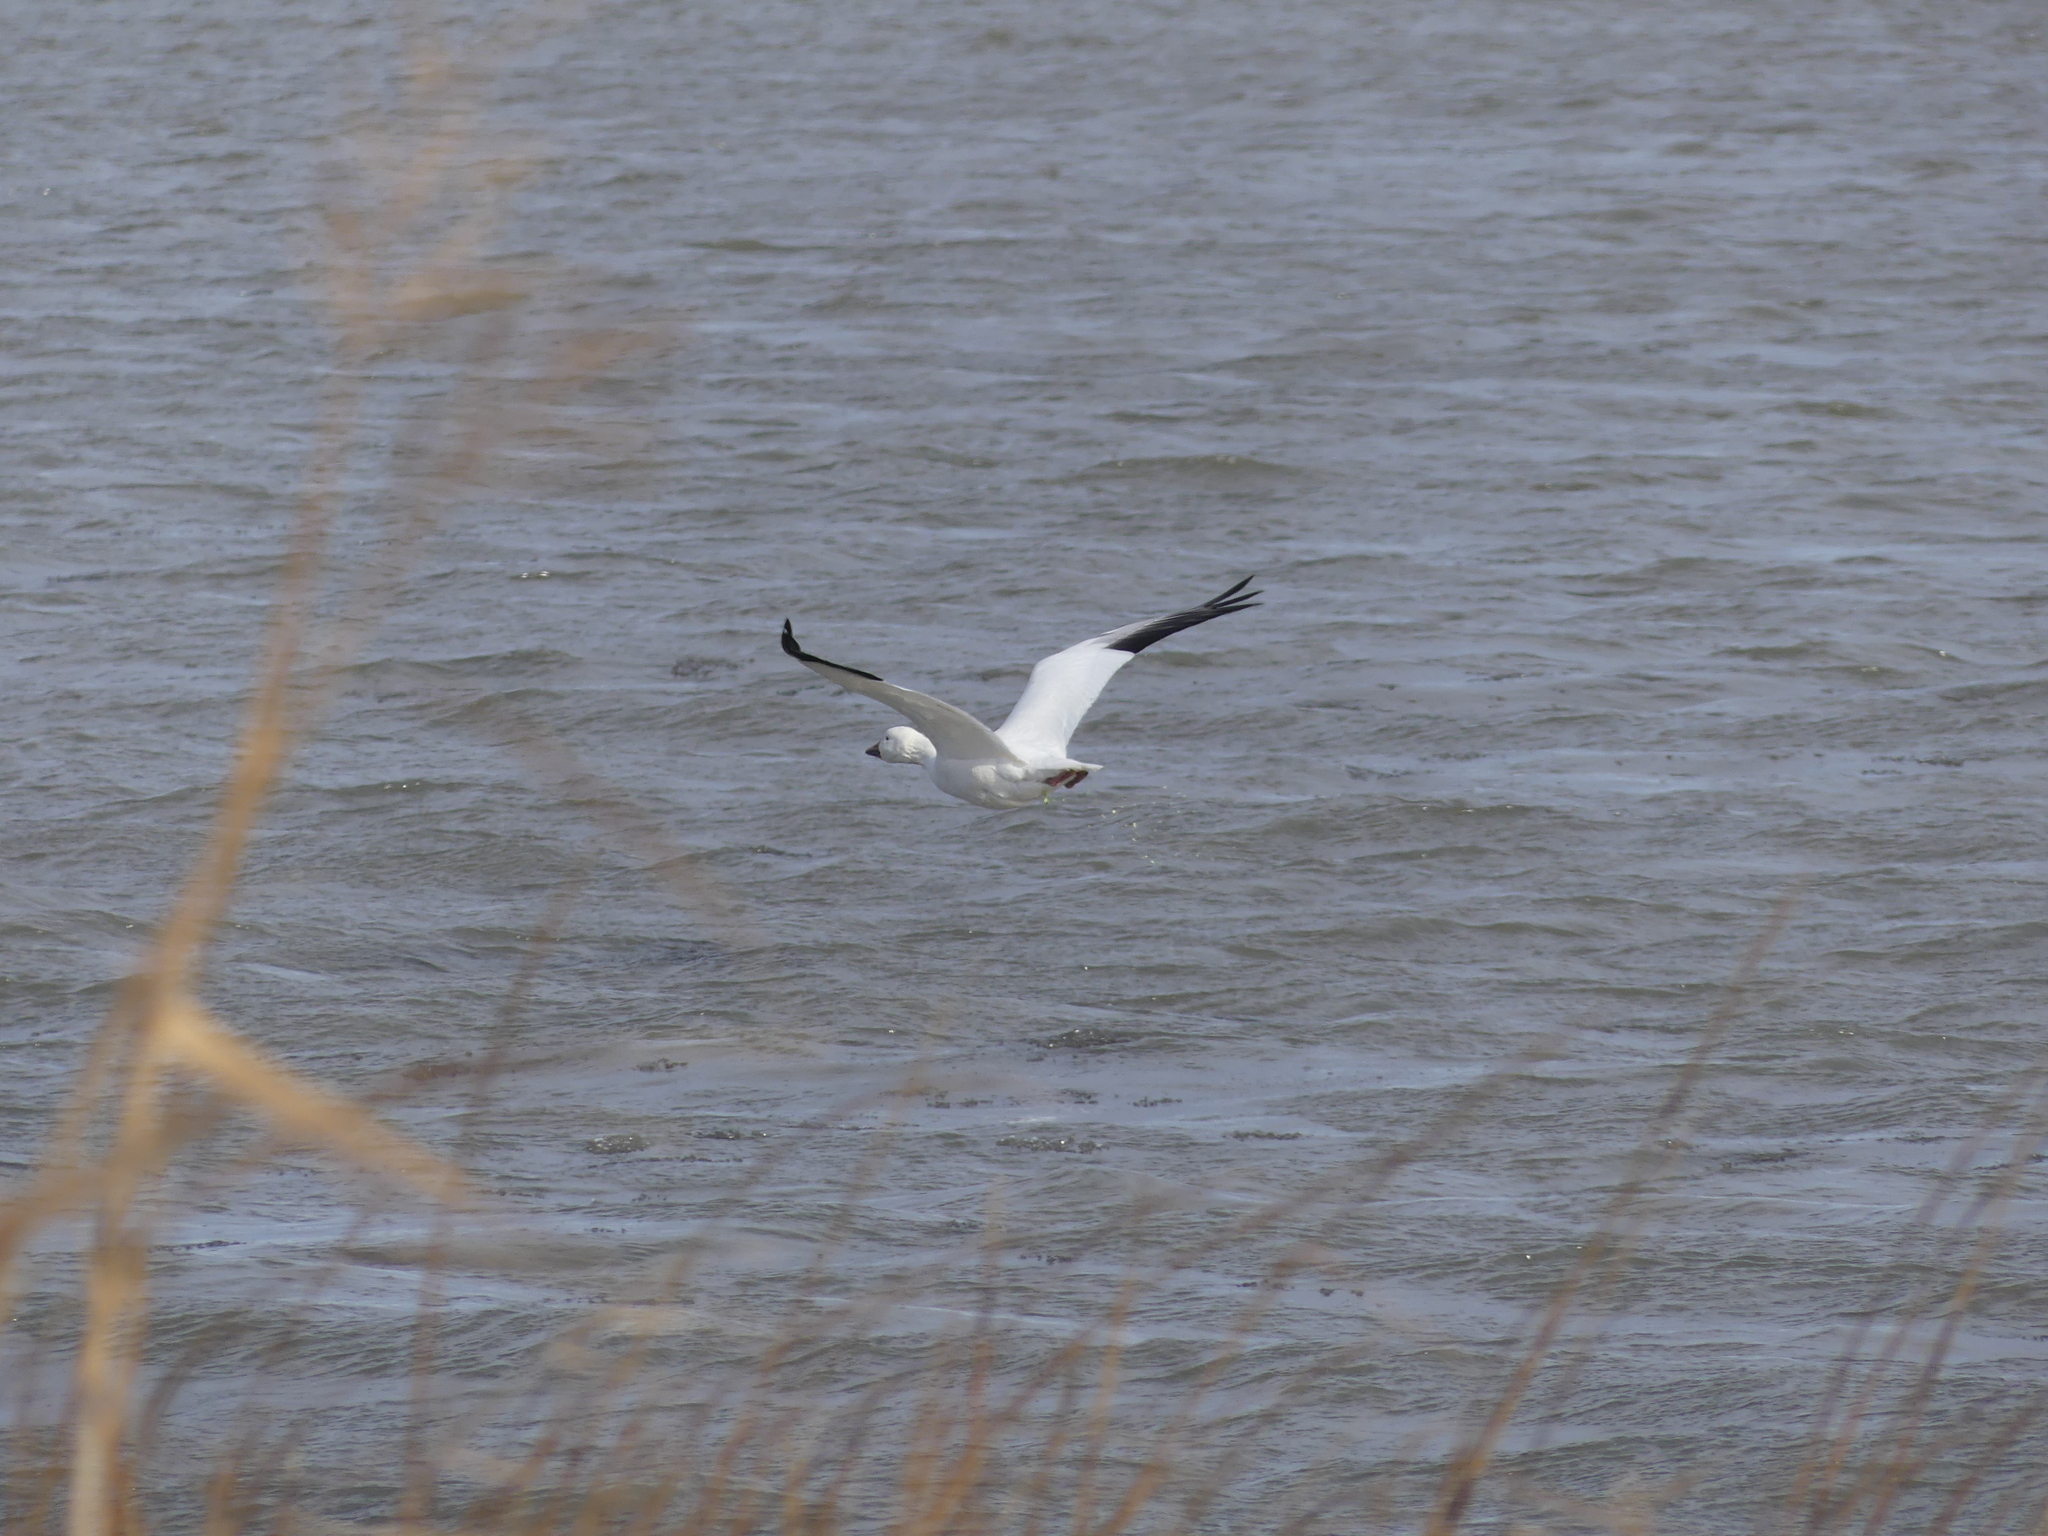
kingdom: Animalia
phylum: Chordata
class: Aves
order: Anseriformes
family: Anatidae
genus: Anser
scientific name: Anser caerulescens
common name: Snow goose
